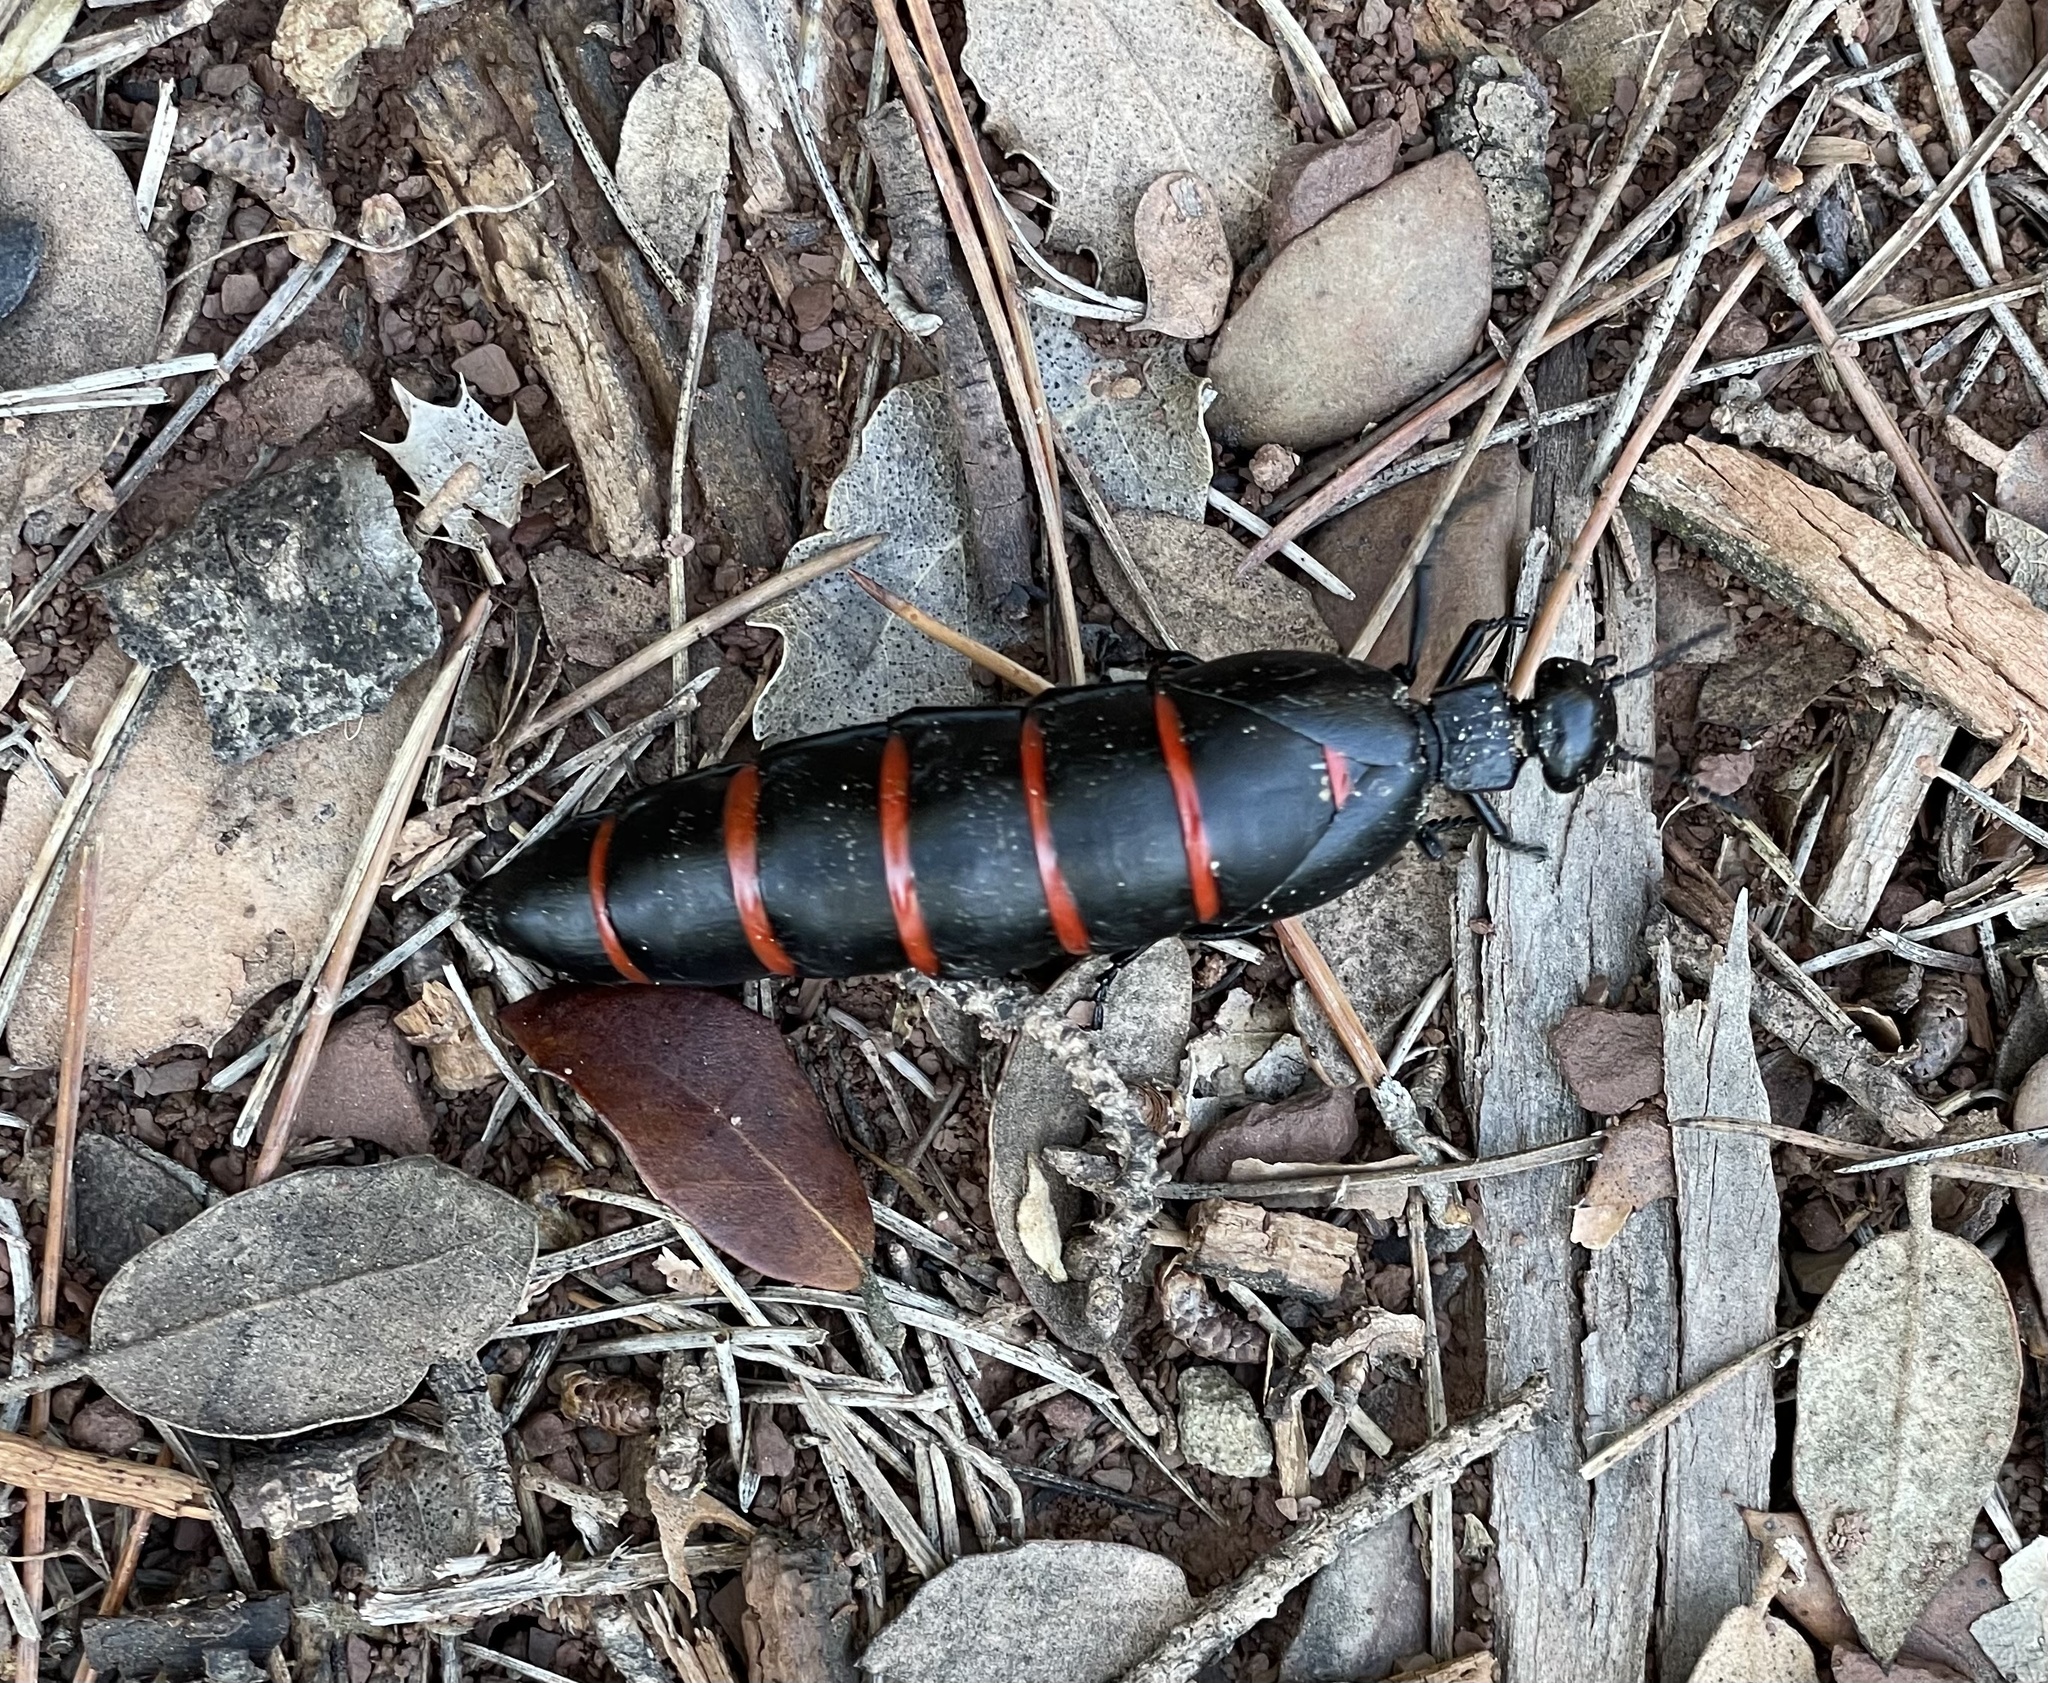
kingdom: Animalia
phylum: Arthropoda
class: Insecta
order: Coleoptera
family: Meloidae
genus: Berberomeloe
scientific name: Berberomeloe majalis
